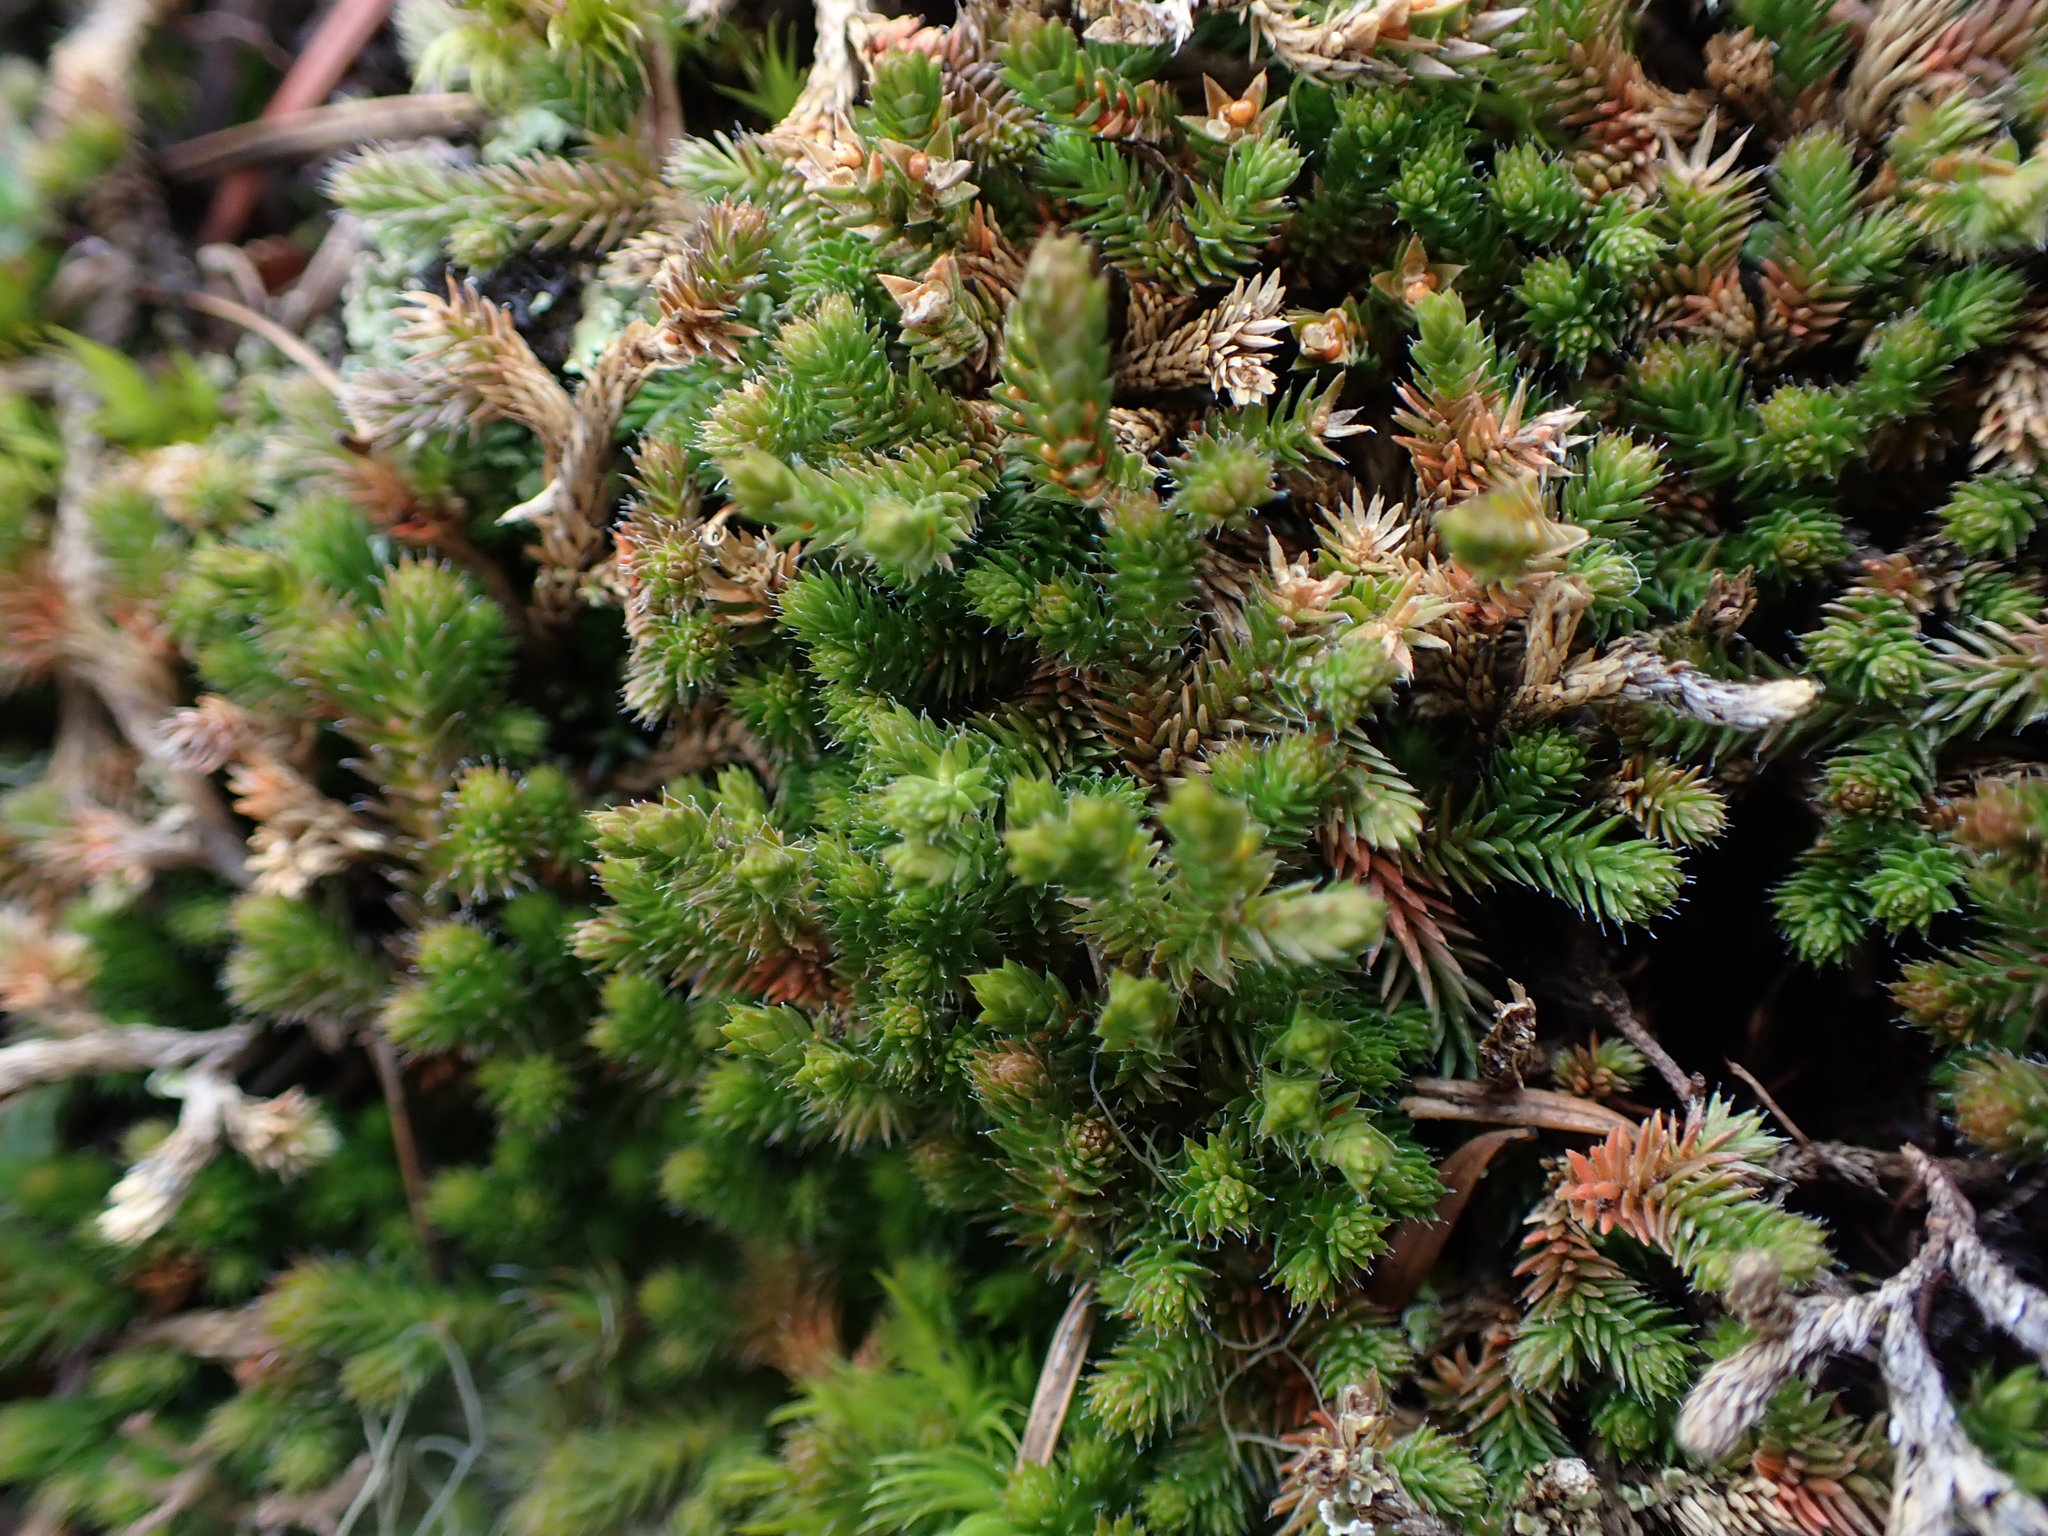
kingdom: Plantae
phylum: Tracheophyta
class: Lycopodiopsida
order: Selaginellales
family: Selaginellaceae
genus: Selaginella
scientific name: Selaginella wallacei
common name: Wallace's selaginella
